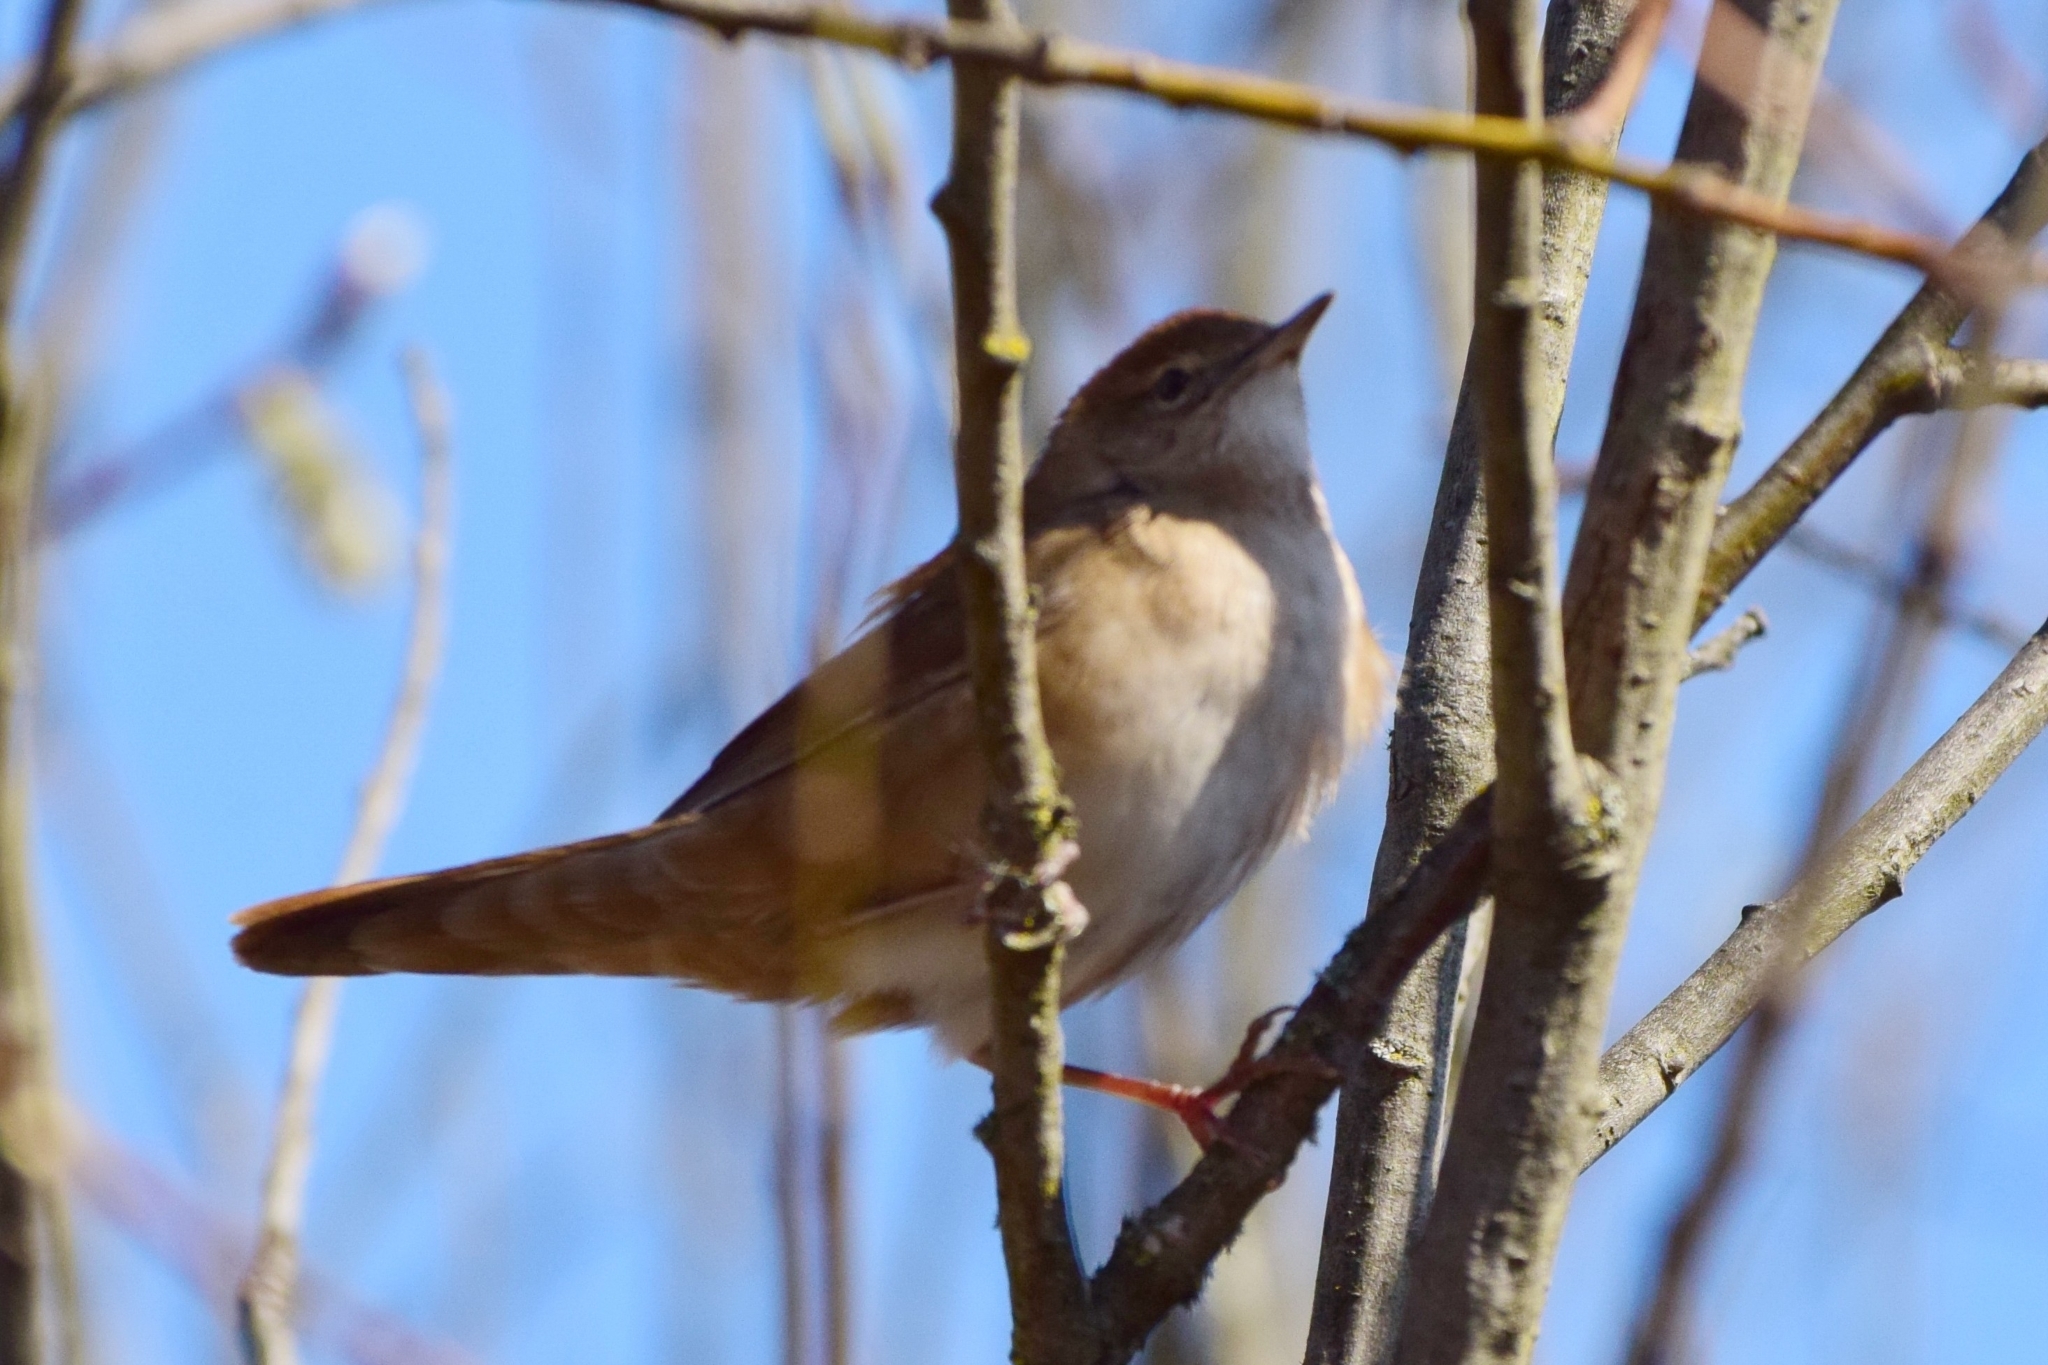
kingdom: Animalia
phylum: Chordata
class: Aves
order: Passeriformes
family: Locustellidae
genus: Locustella
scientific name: Locustella luscinioides
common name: Savi's warbler
